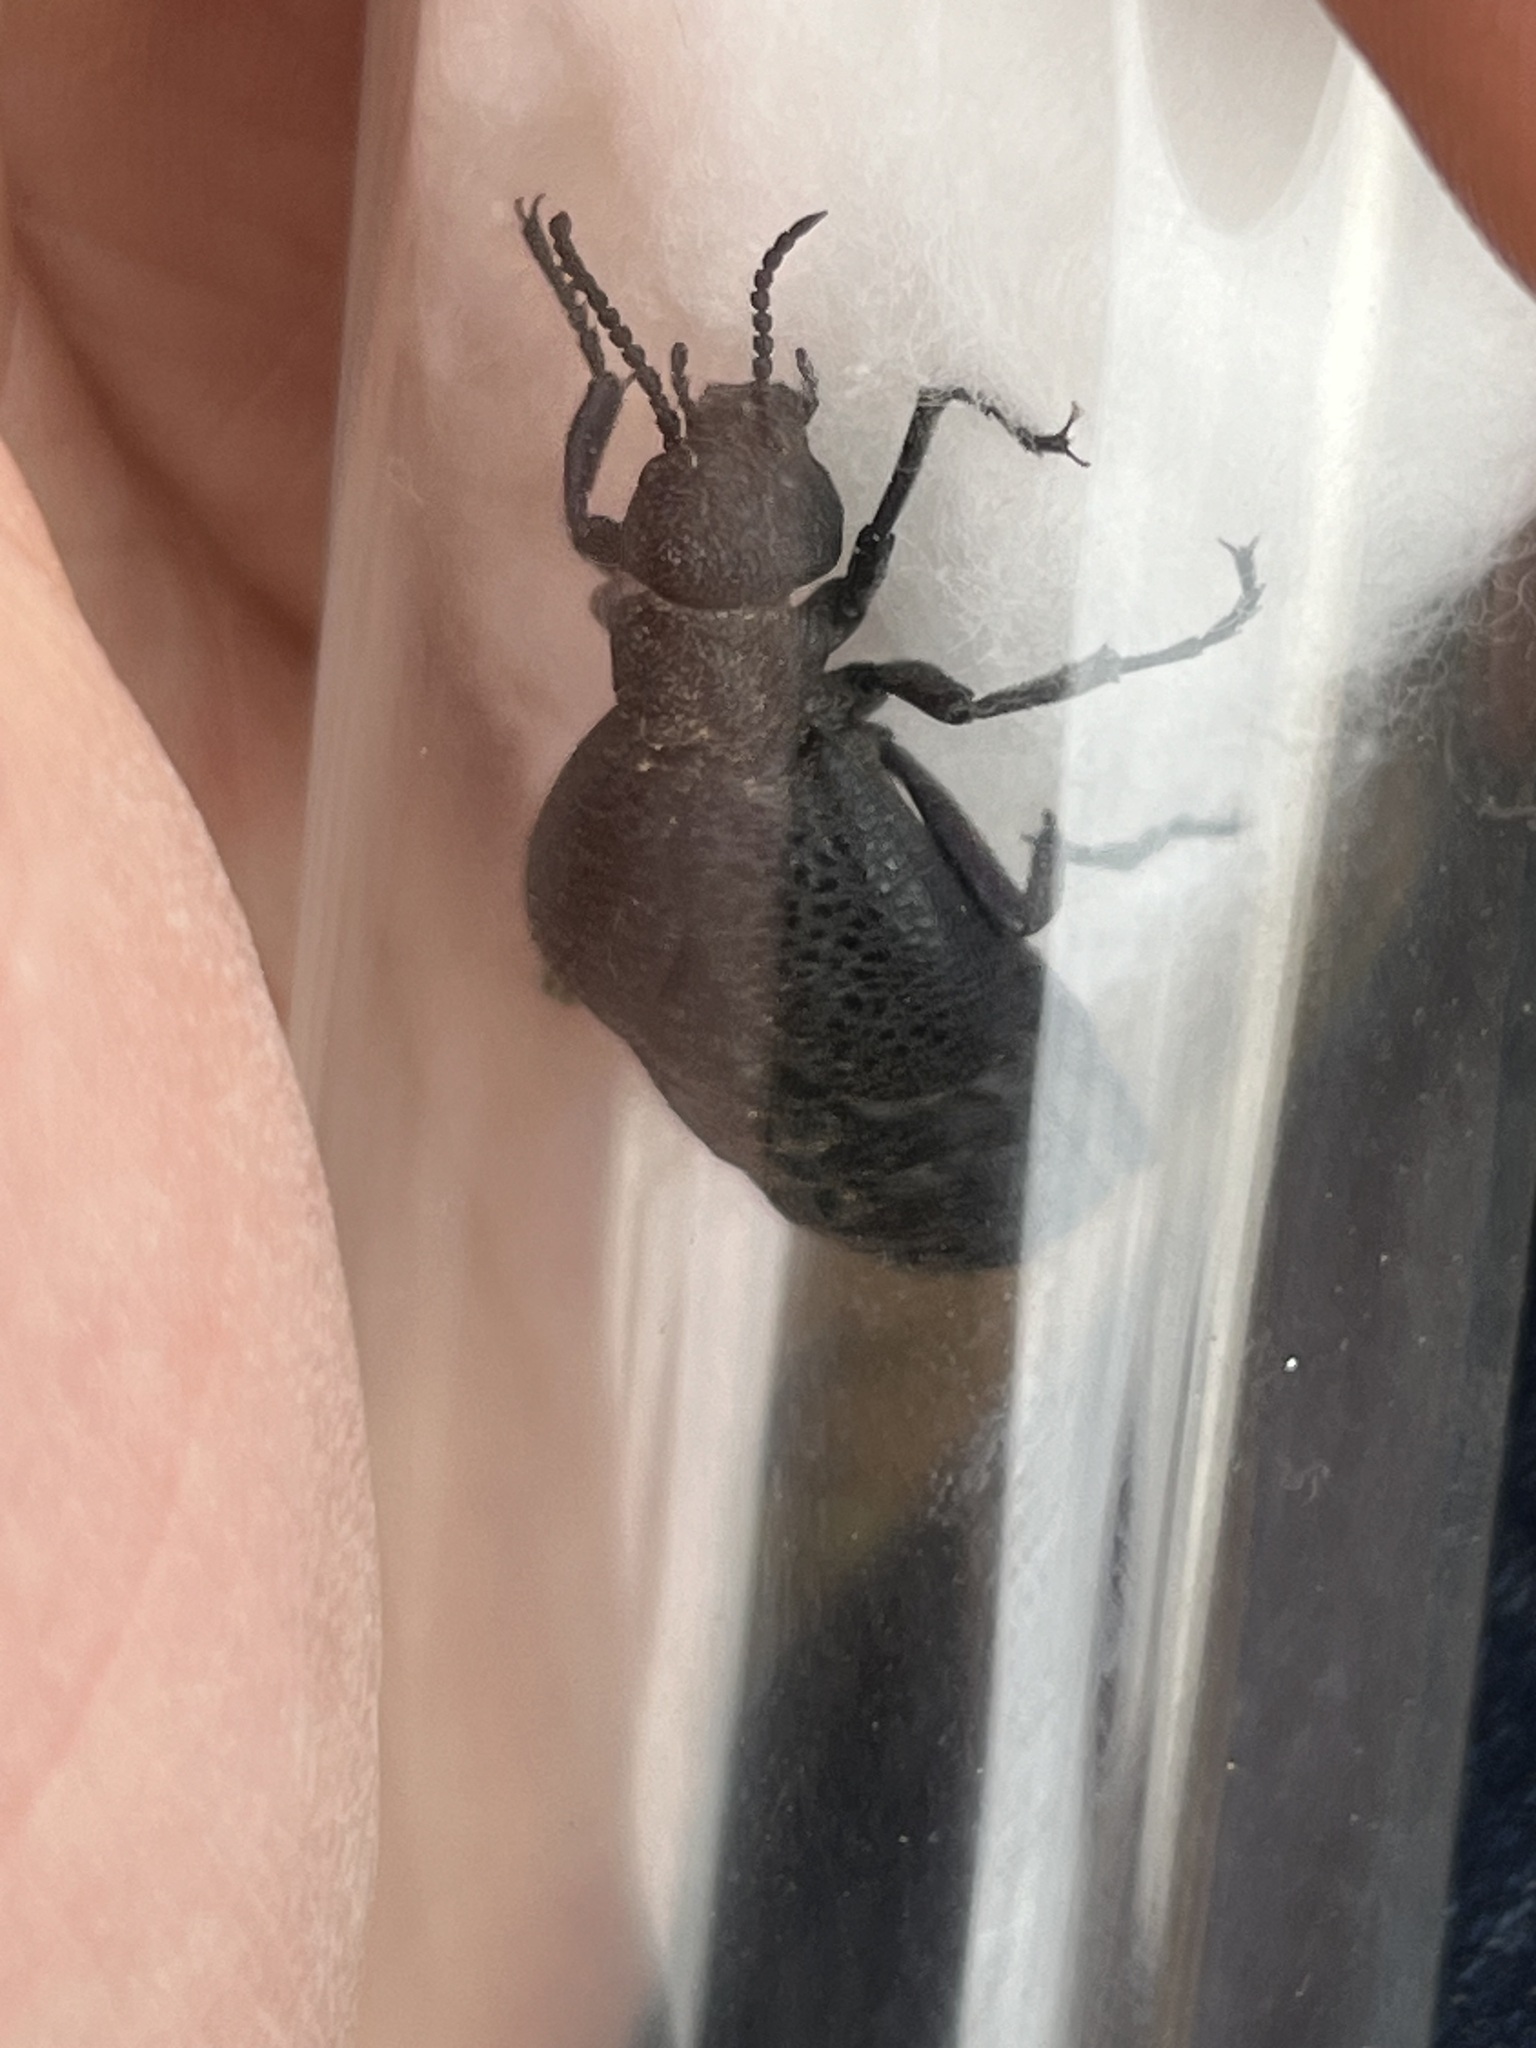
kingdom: Animalia
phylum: Arthropoda
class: Insecta
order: Coleoptera
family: Meloidae
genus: Meloe
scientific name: Meloe cavensis
